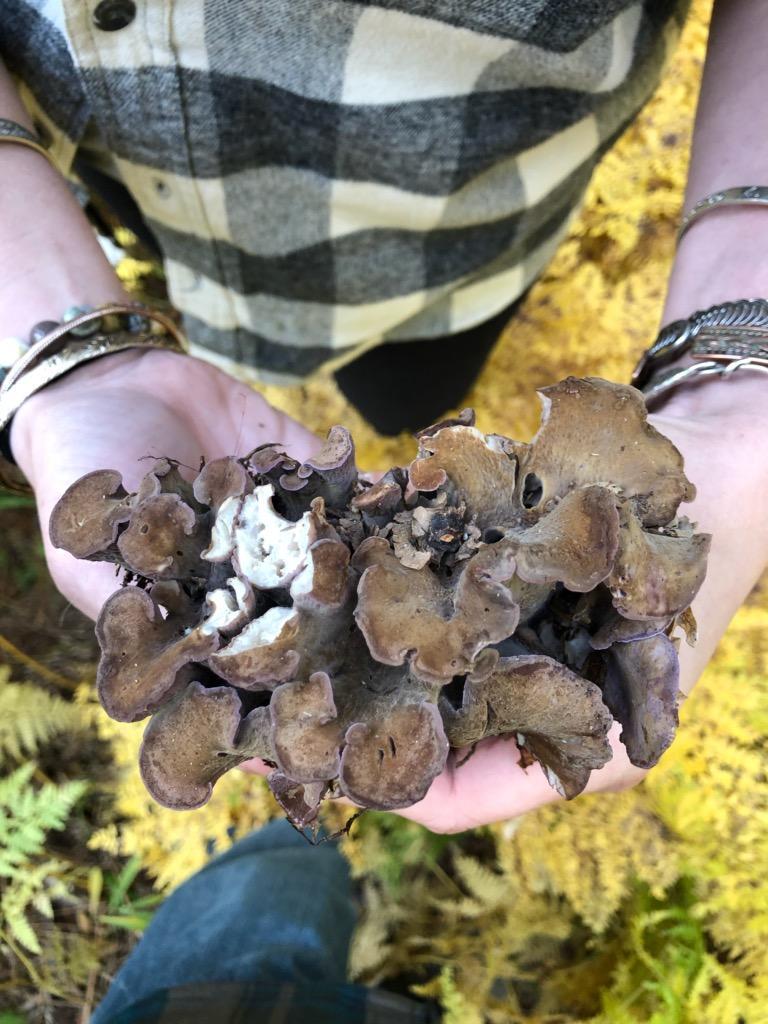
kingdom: Fungi
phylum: Basidiomycota
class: Agaricomycetes
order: Gomphales
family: Gomphaceae
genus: Gomphus
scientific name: Gomphus clavatus
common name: Pig's ear
